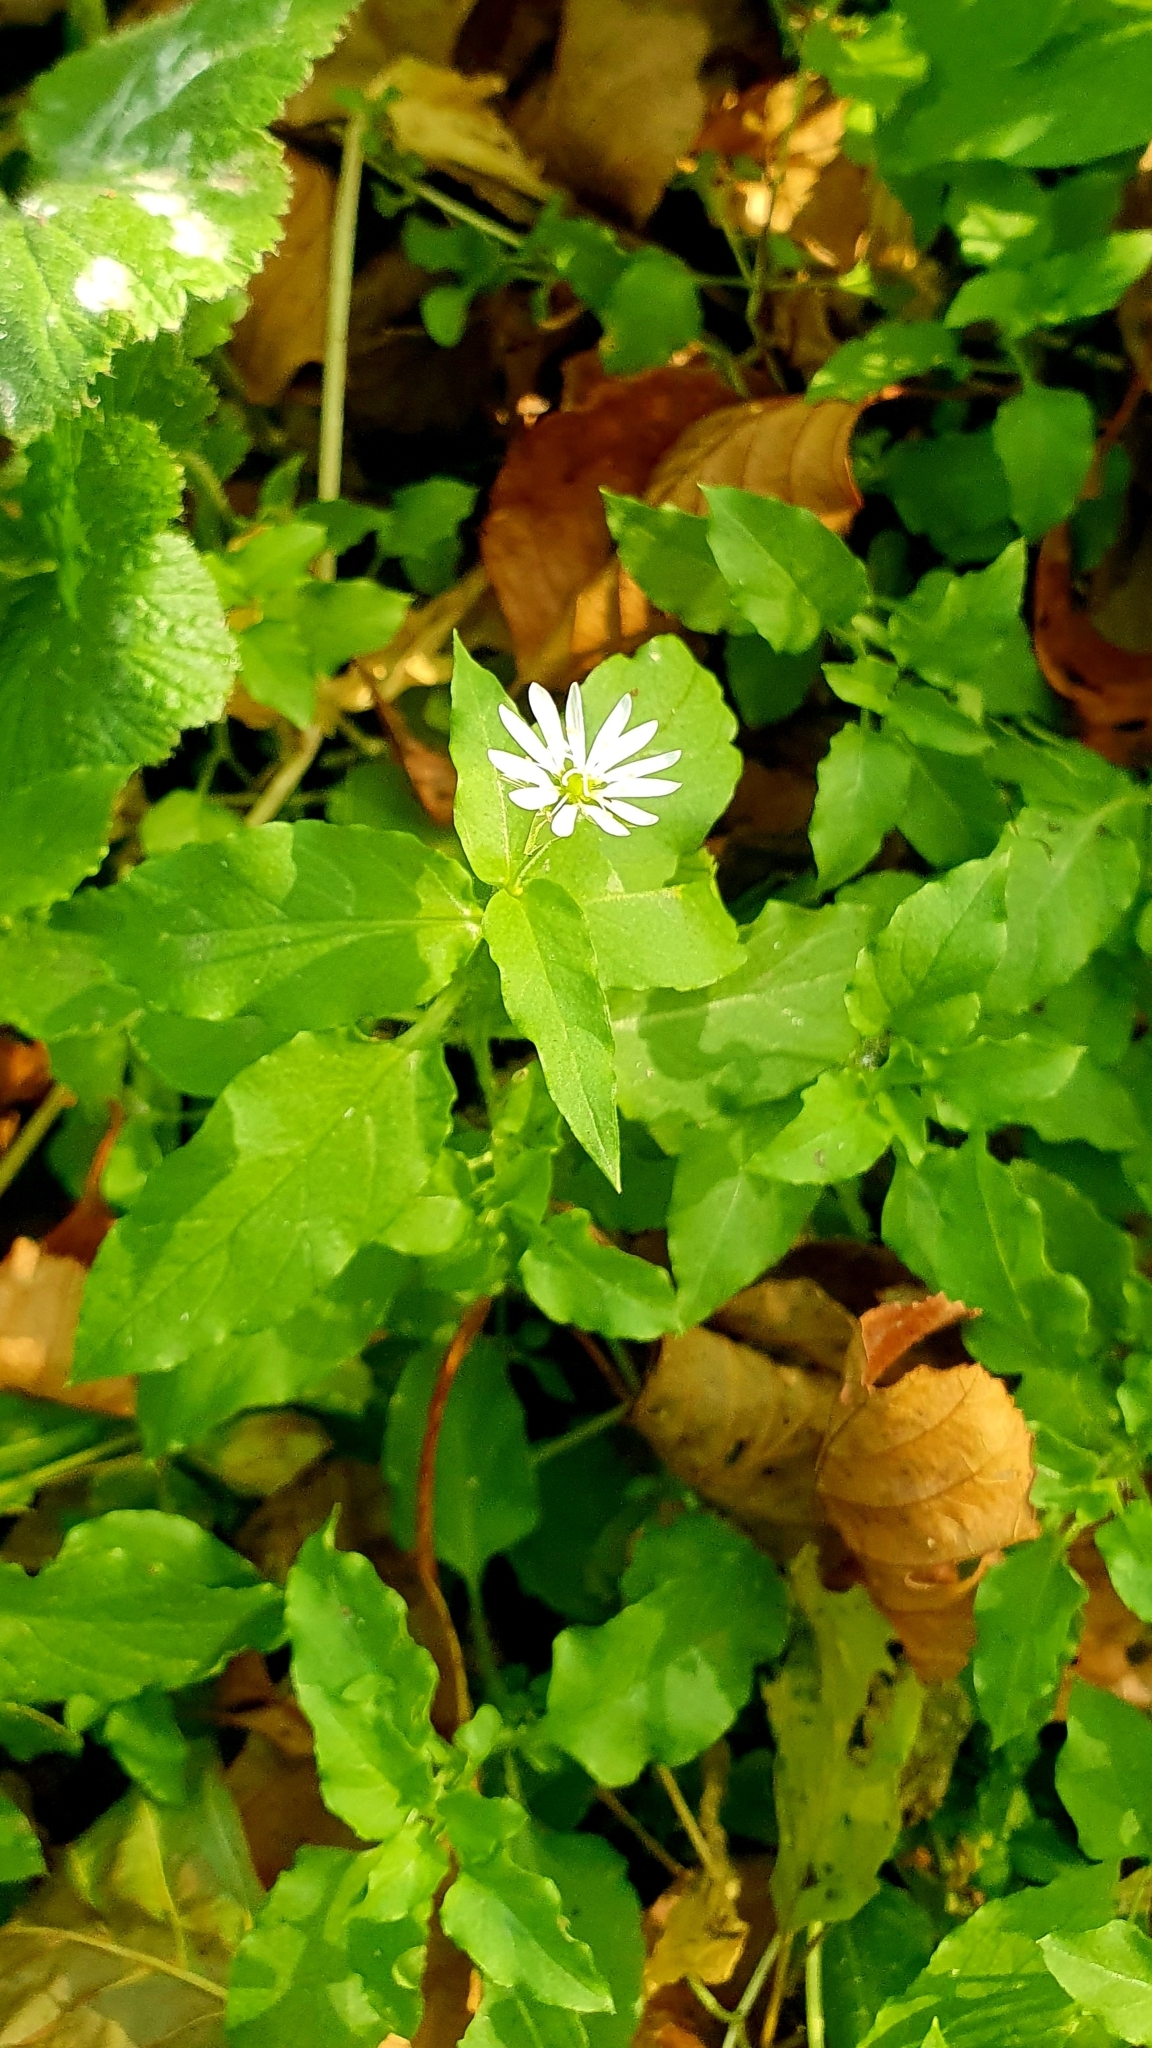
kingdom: Plantae
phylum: Tracheophyta
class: Magnoliopsida
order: Caryophyllales
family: Caryophyllaceae
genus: Stellaria
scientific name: Stellaria aquatica
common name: Water chickweed
